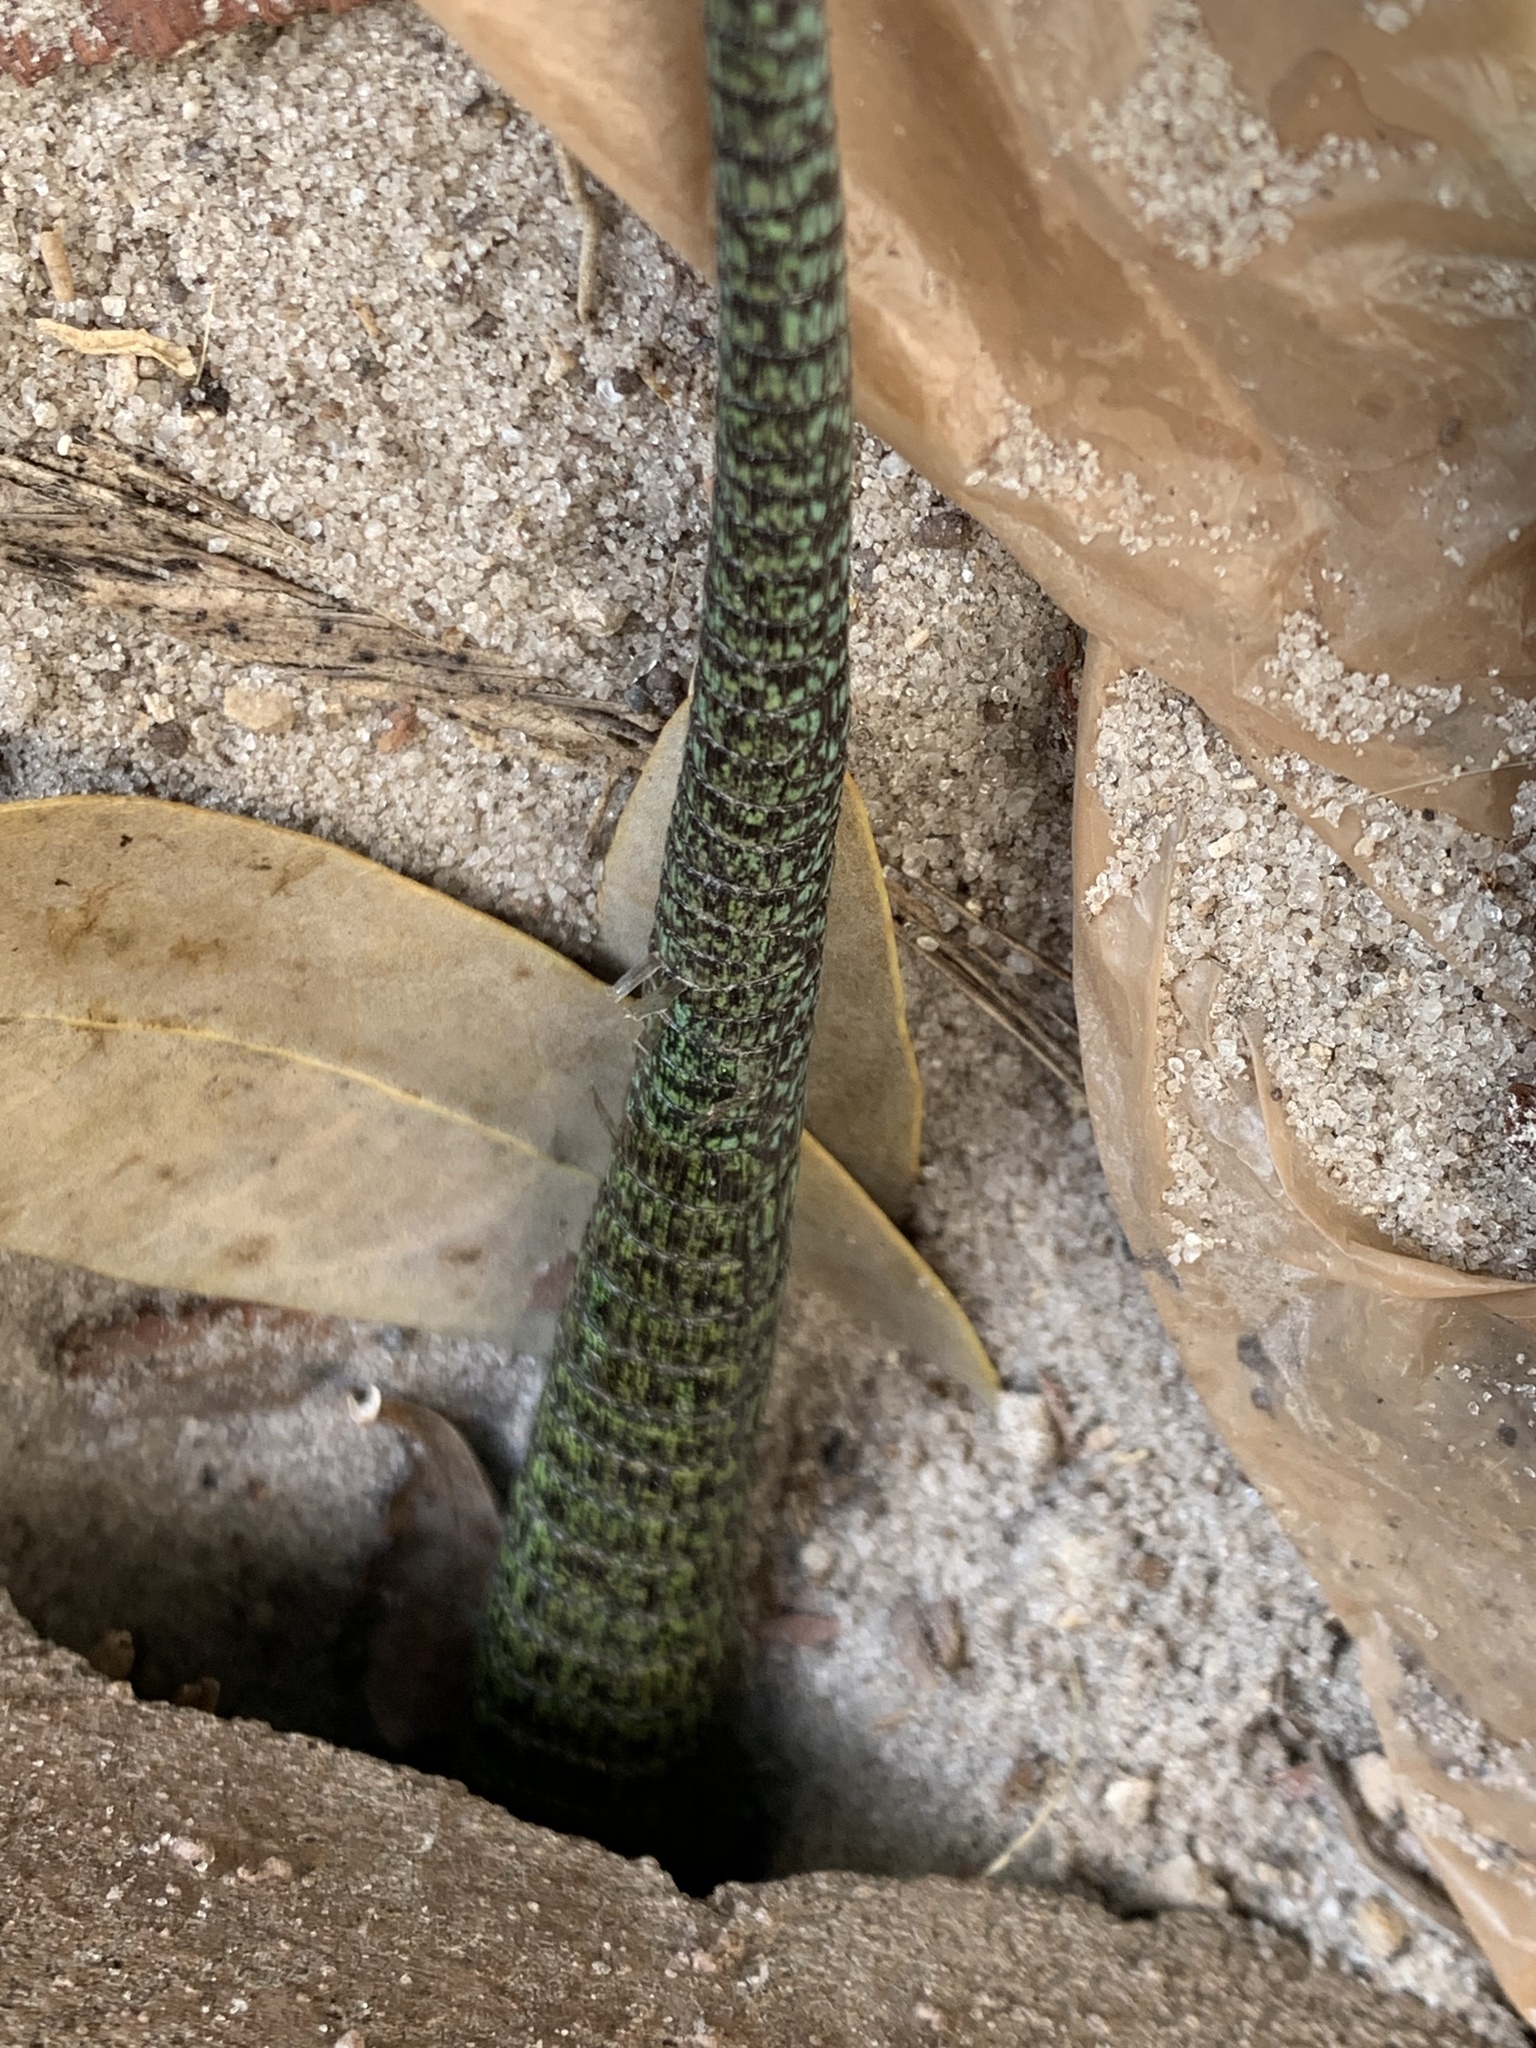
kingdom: Animalia
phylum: Chordata
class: Squamata
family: Teiidae
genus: Ameiva
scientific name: Ameiva ameiva
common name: Giant ameiva
